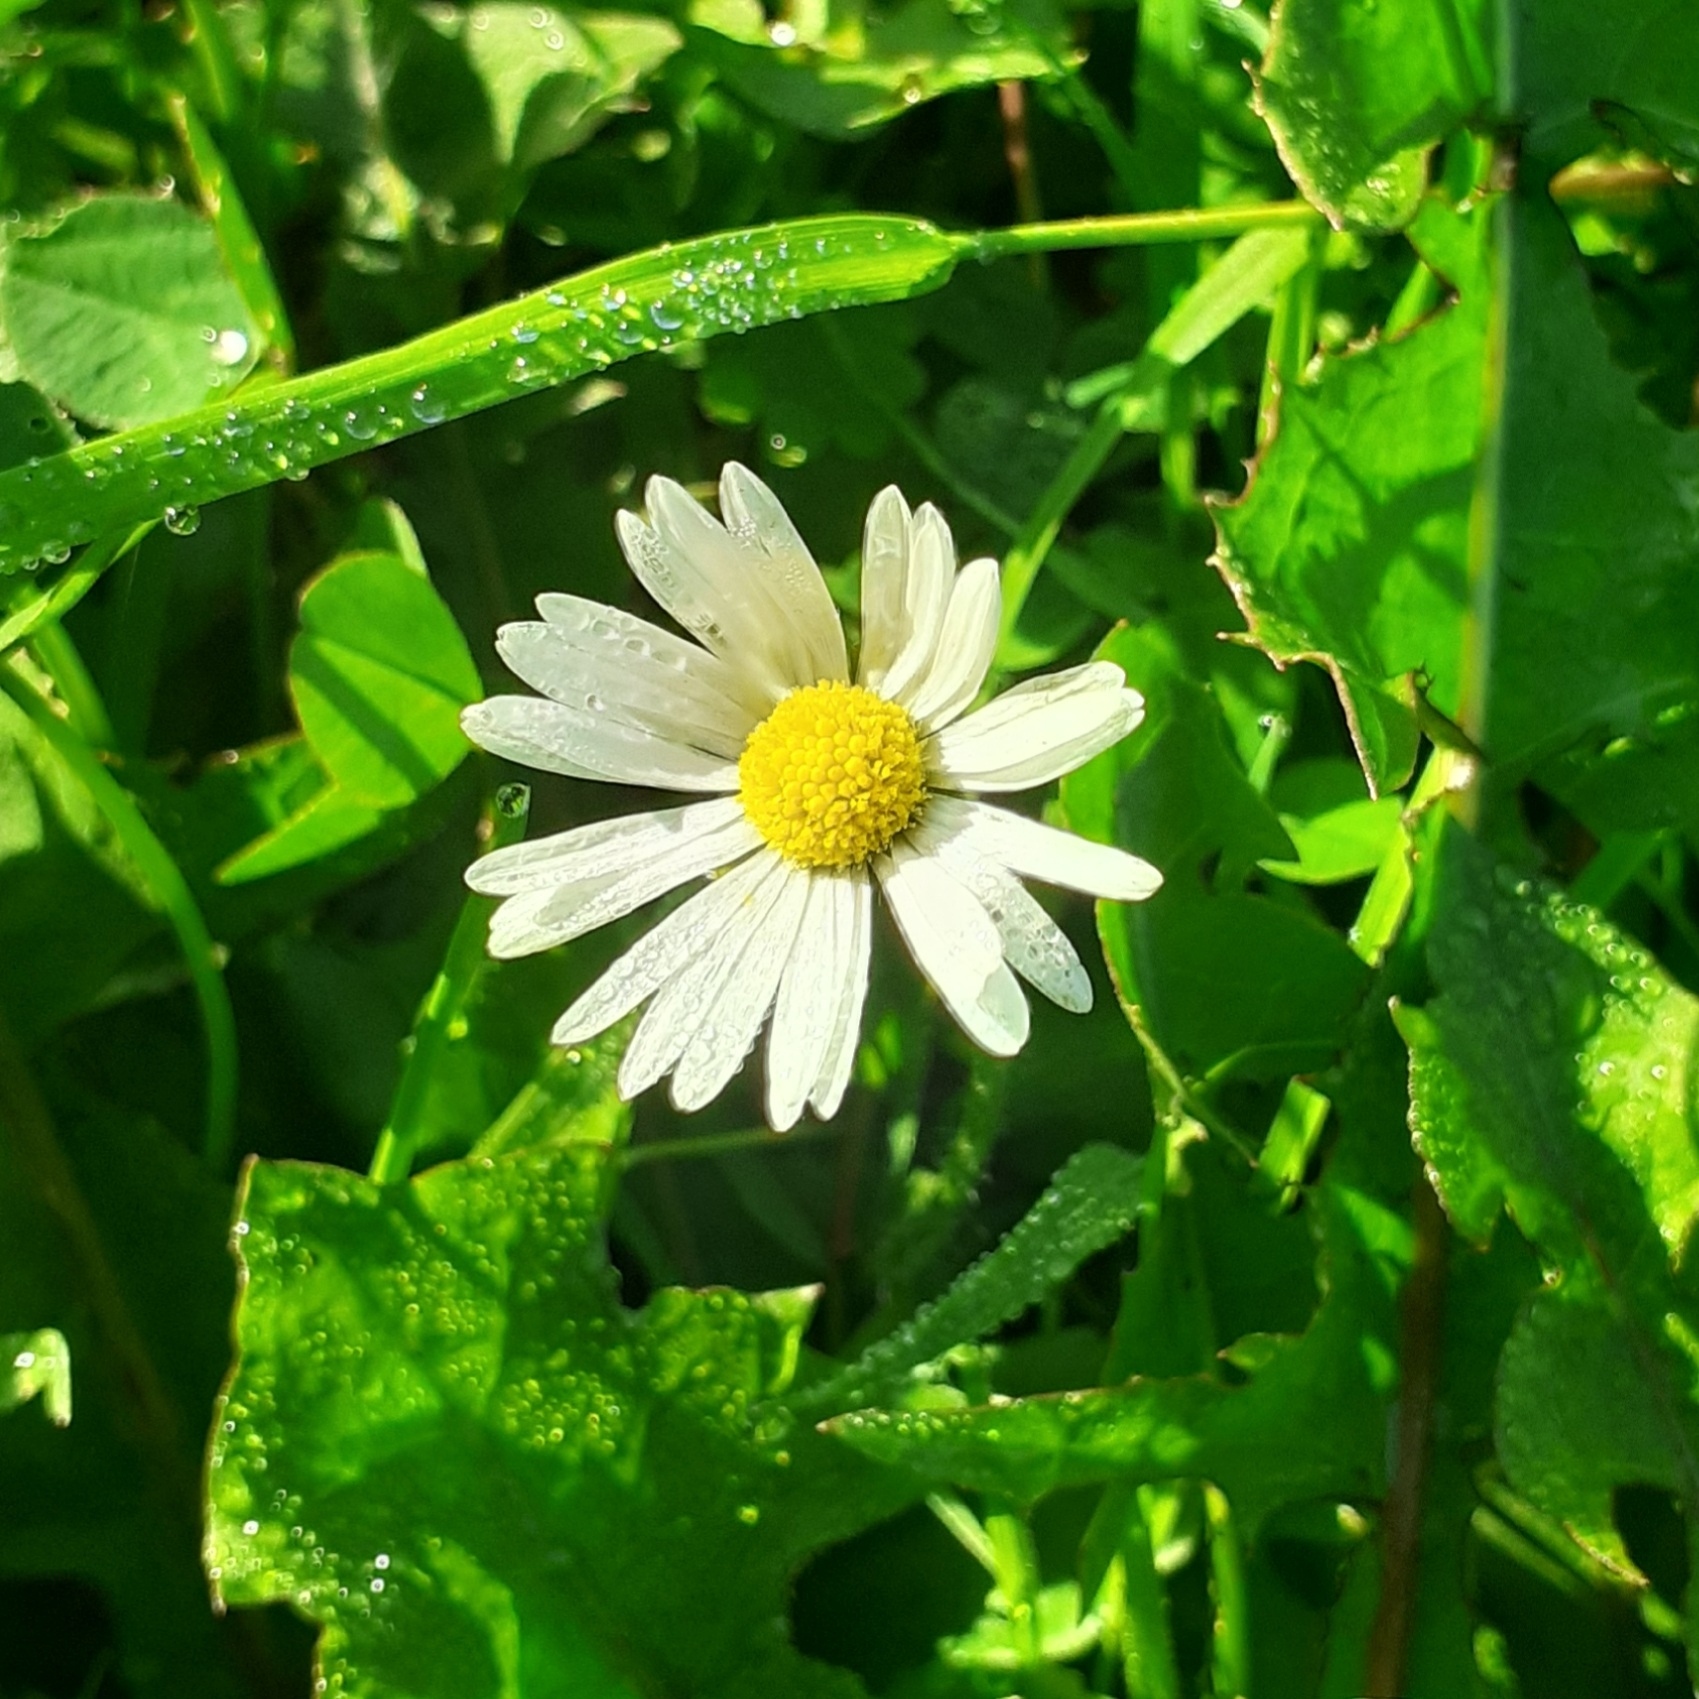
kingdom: Plantae
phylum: Tracheophyta
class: Magnoliopsida
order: Asterales
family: Asteraceae
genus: Bellis
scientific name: Bellis perennis
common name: Lawndaisy
